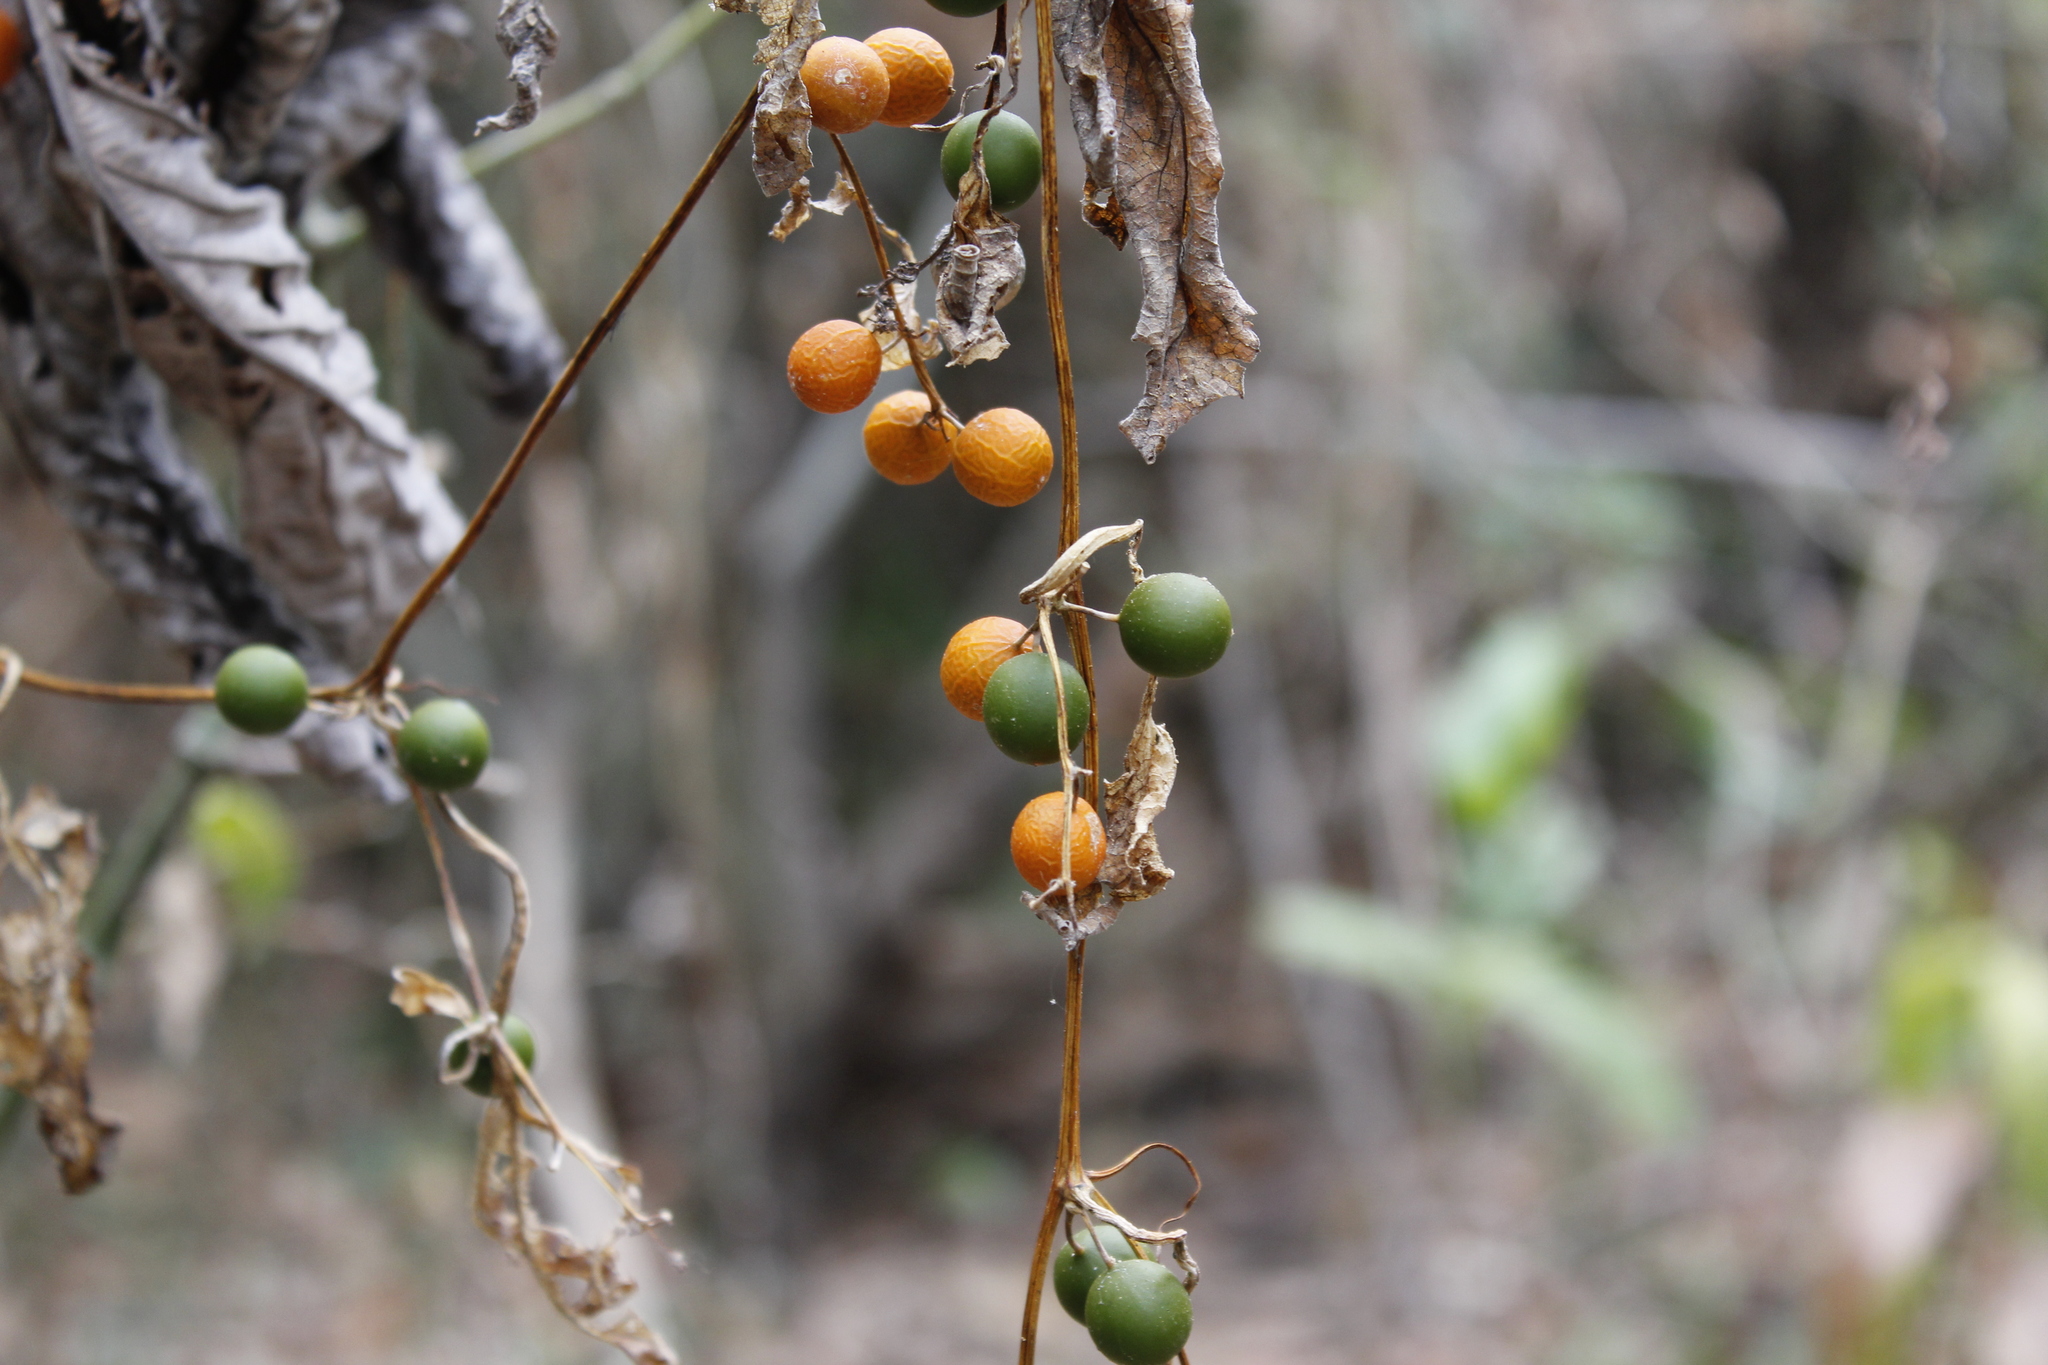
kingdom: Plantae
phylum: Tracheophyta
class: Magnoliopsida
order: Cucurbitales
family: Cucurbitaceae
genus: Cayaponia
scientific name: Cayaponia attenuata
